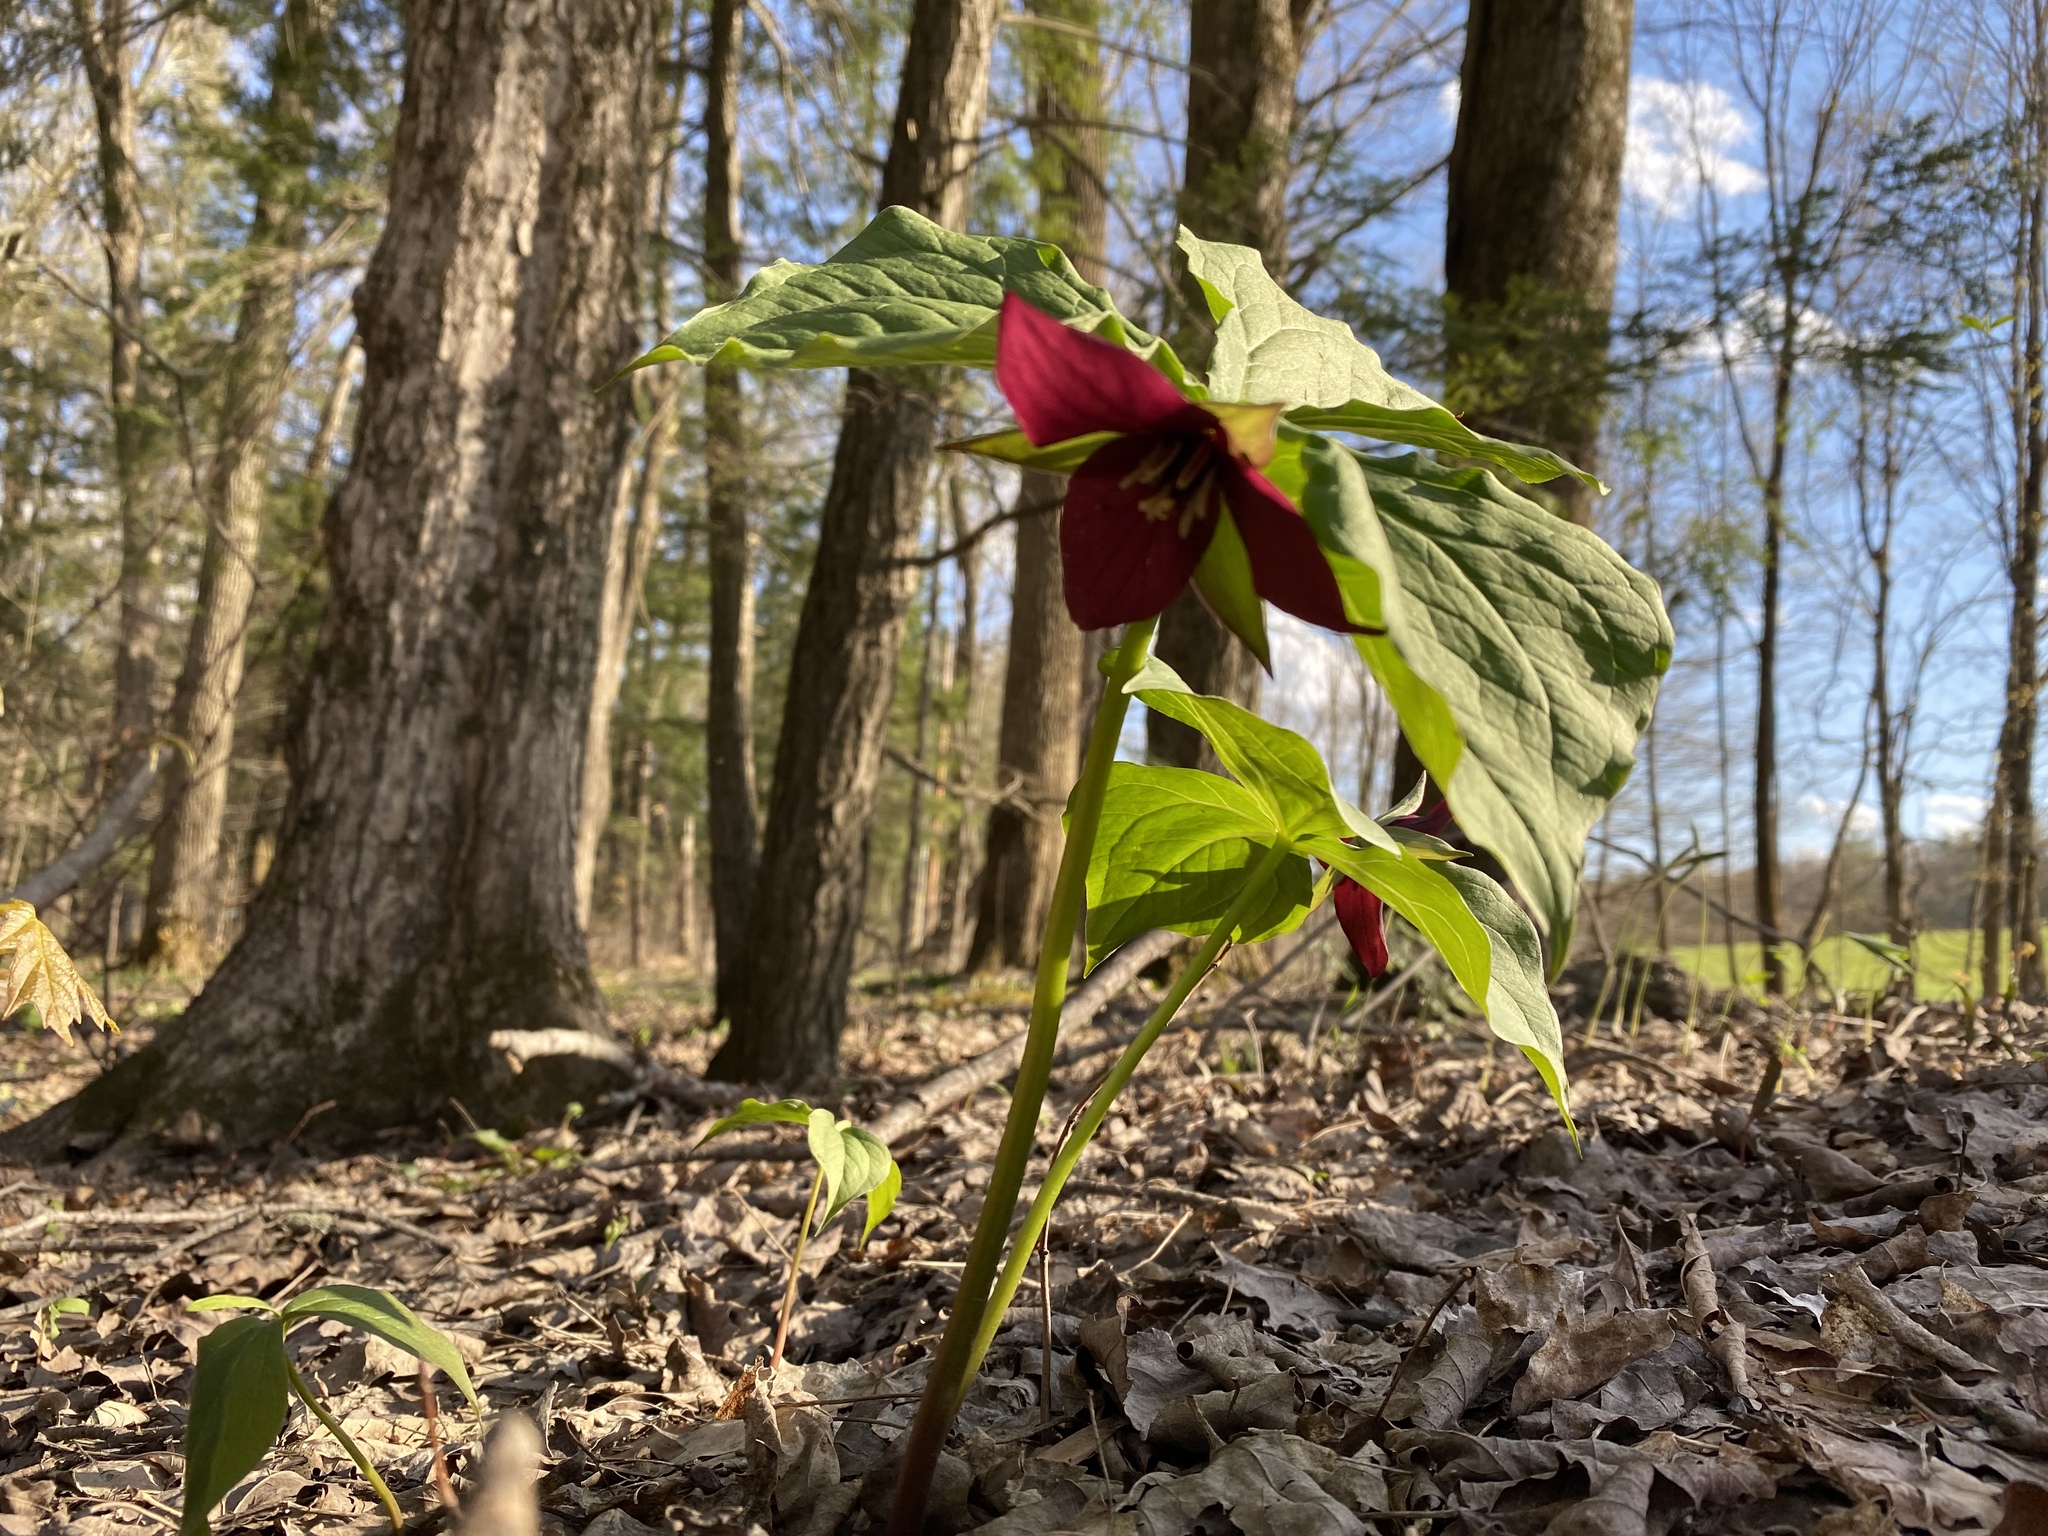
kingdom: Plantae
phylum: Tracheophyta
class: Liliopsida
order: Liliales
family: Melanthiaceae
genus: Trillium
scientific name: Trillium erectum
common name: Purple trillium
